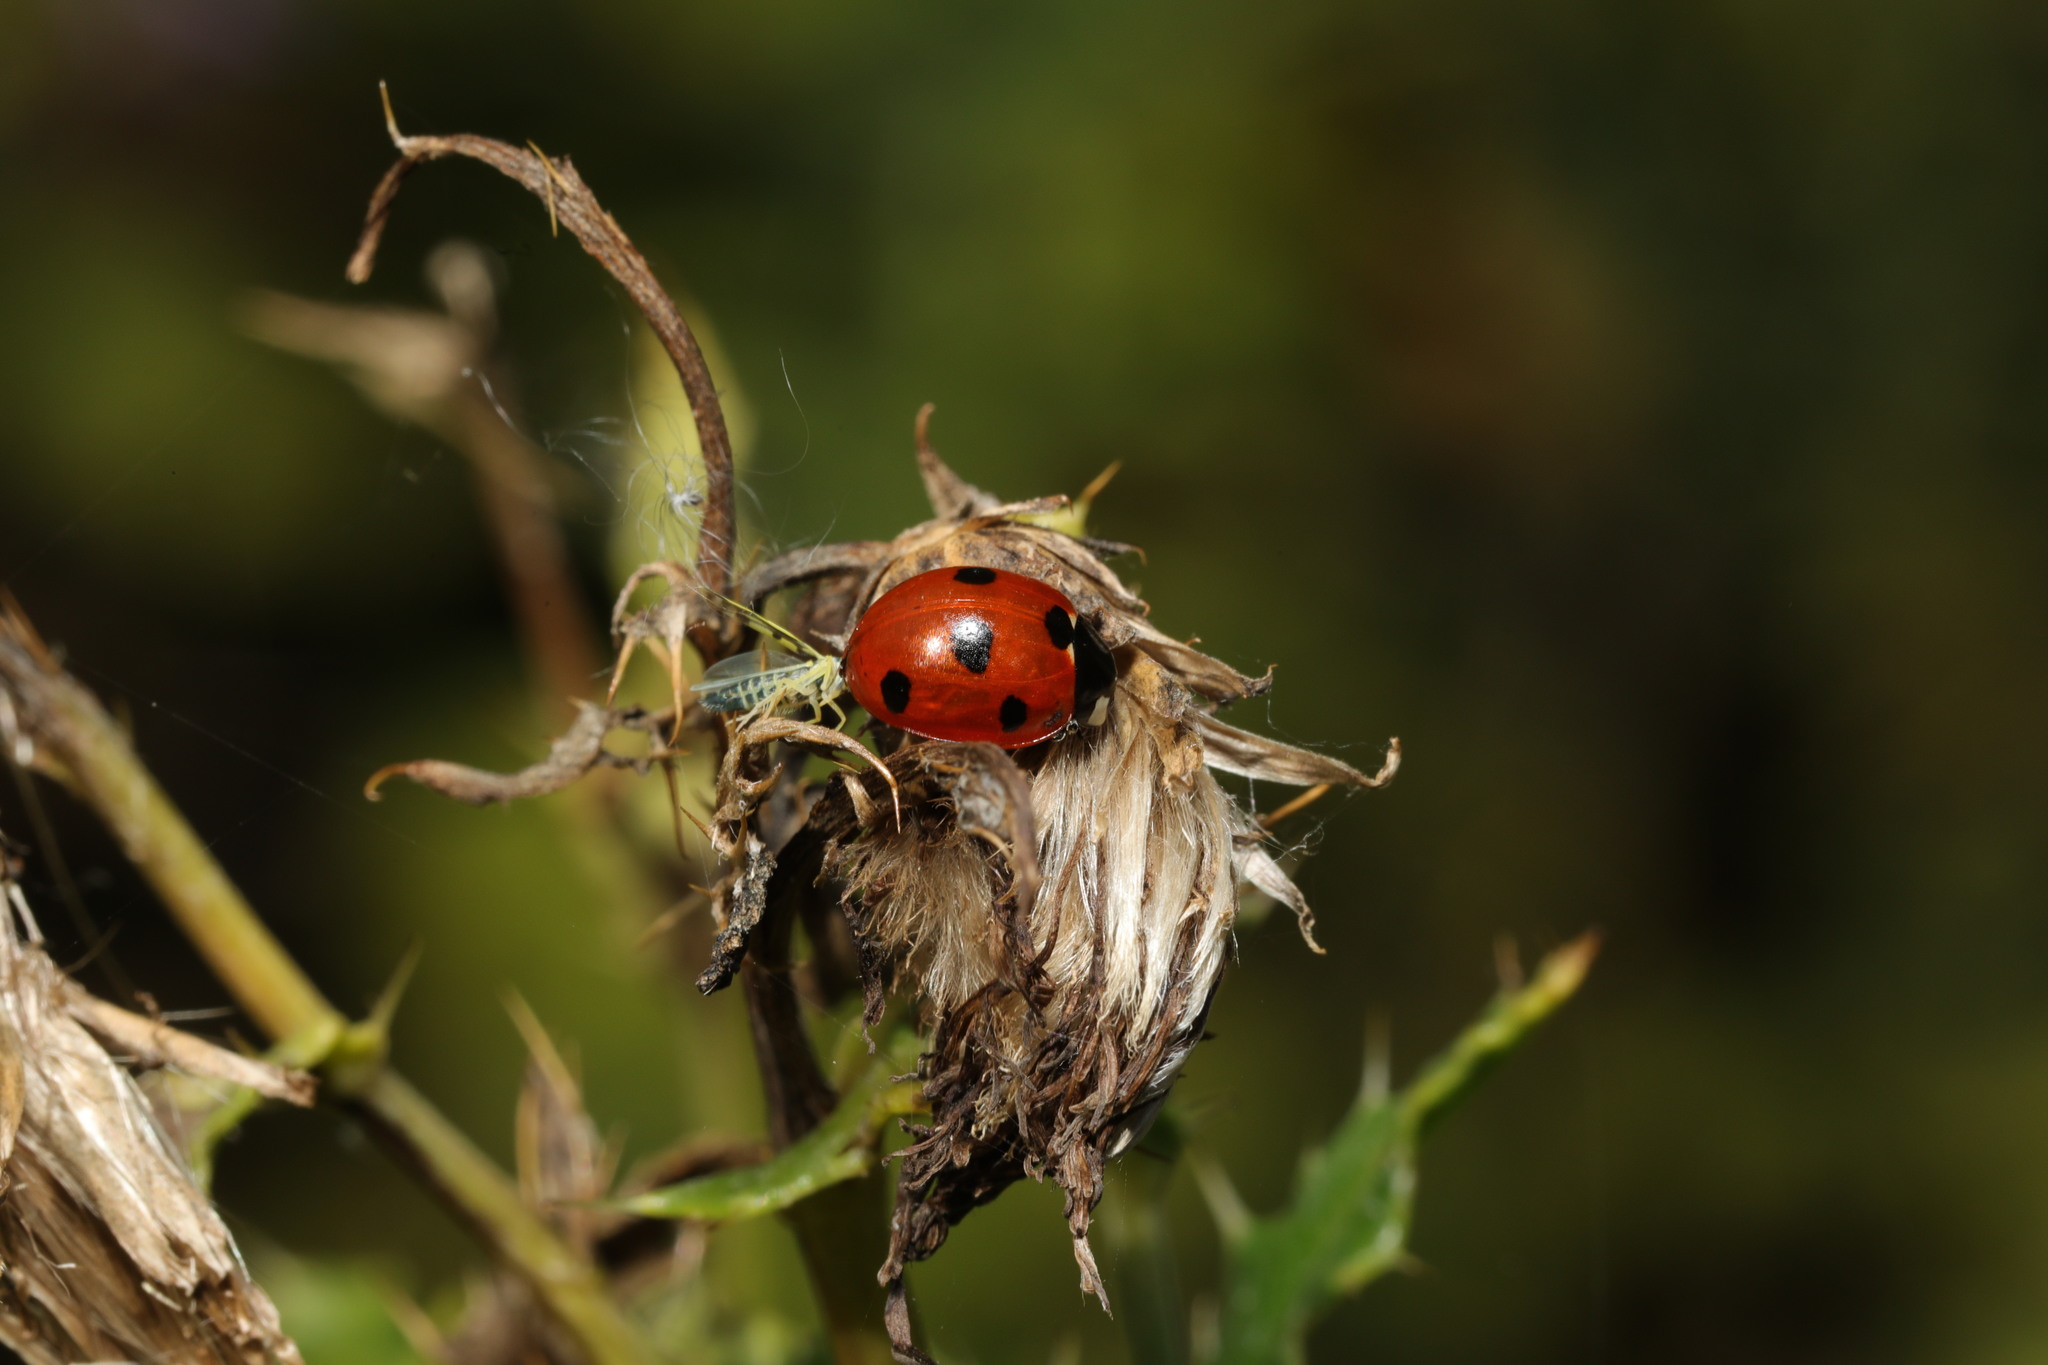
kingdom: Animalia
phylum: Arthropoda
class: Insecta
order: Coleoptera
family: Coccinellidae
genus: Coccinella
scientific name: Coccinella septempunctata
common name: Sevenspotted lady beetle
